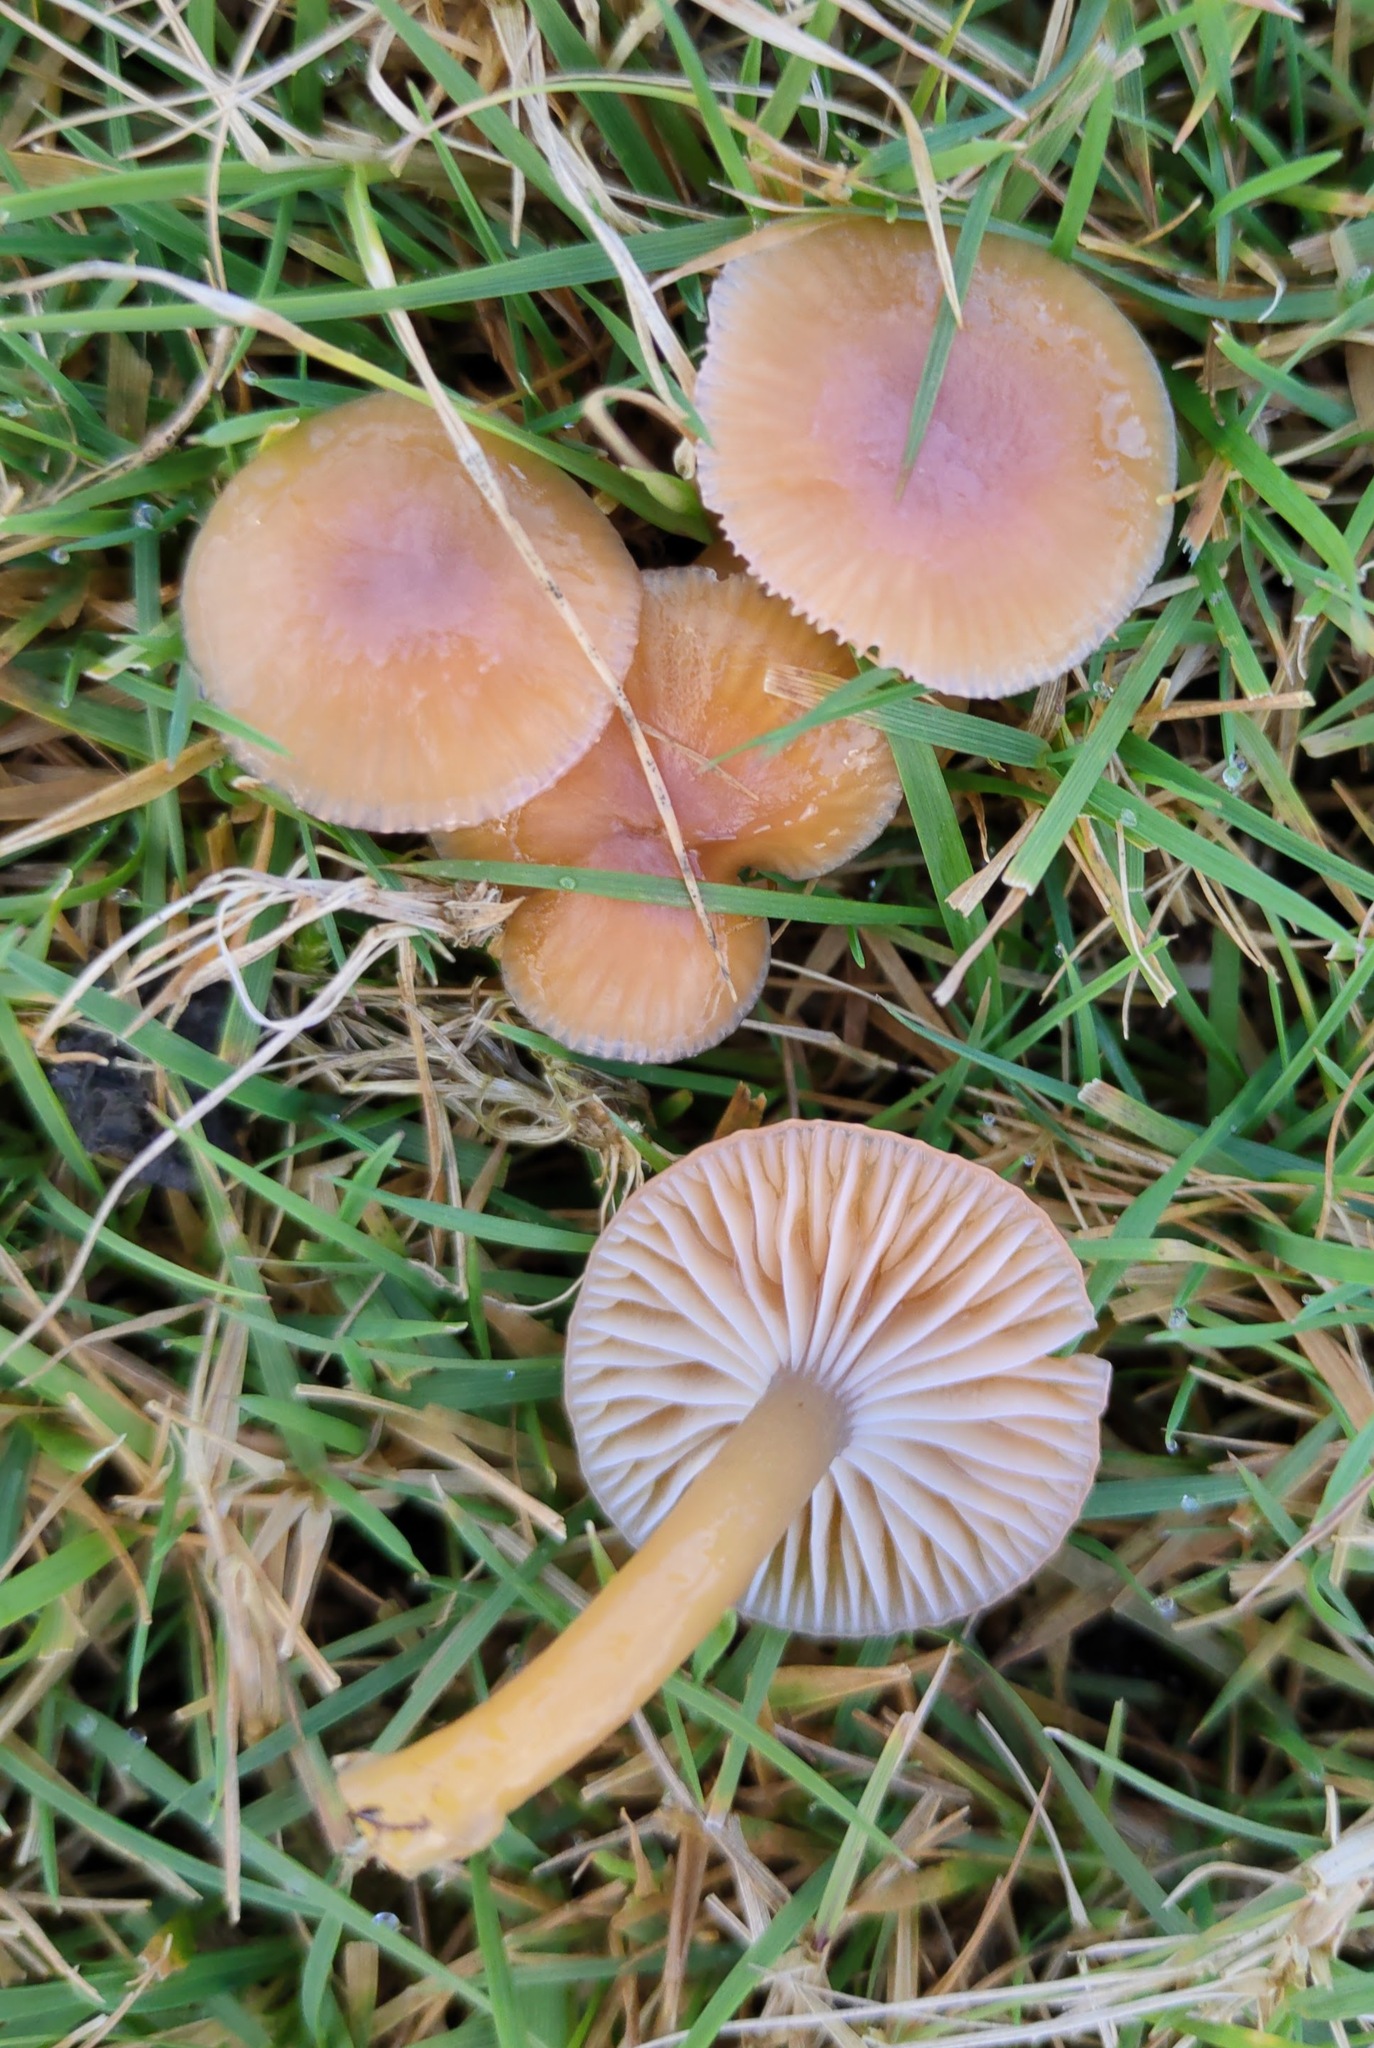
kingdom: Fungi
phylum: Basidiomycota
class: Agaricomycetes
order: Agaricales
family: Hygrophoraceae
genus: Gliophorus
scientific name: Gliophorus laetus
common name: Heath waxcap
